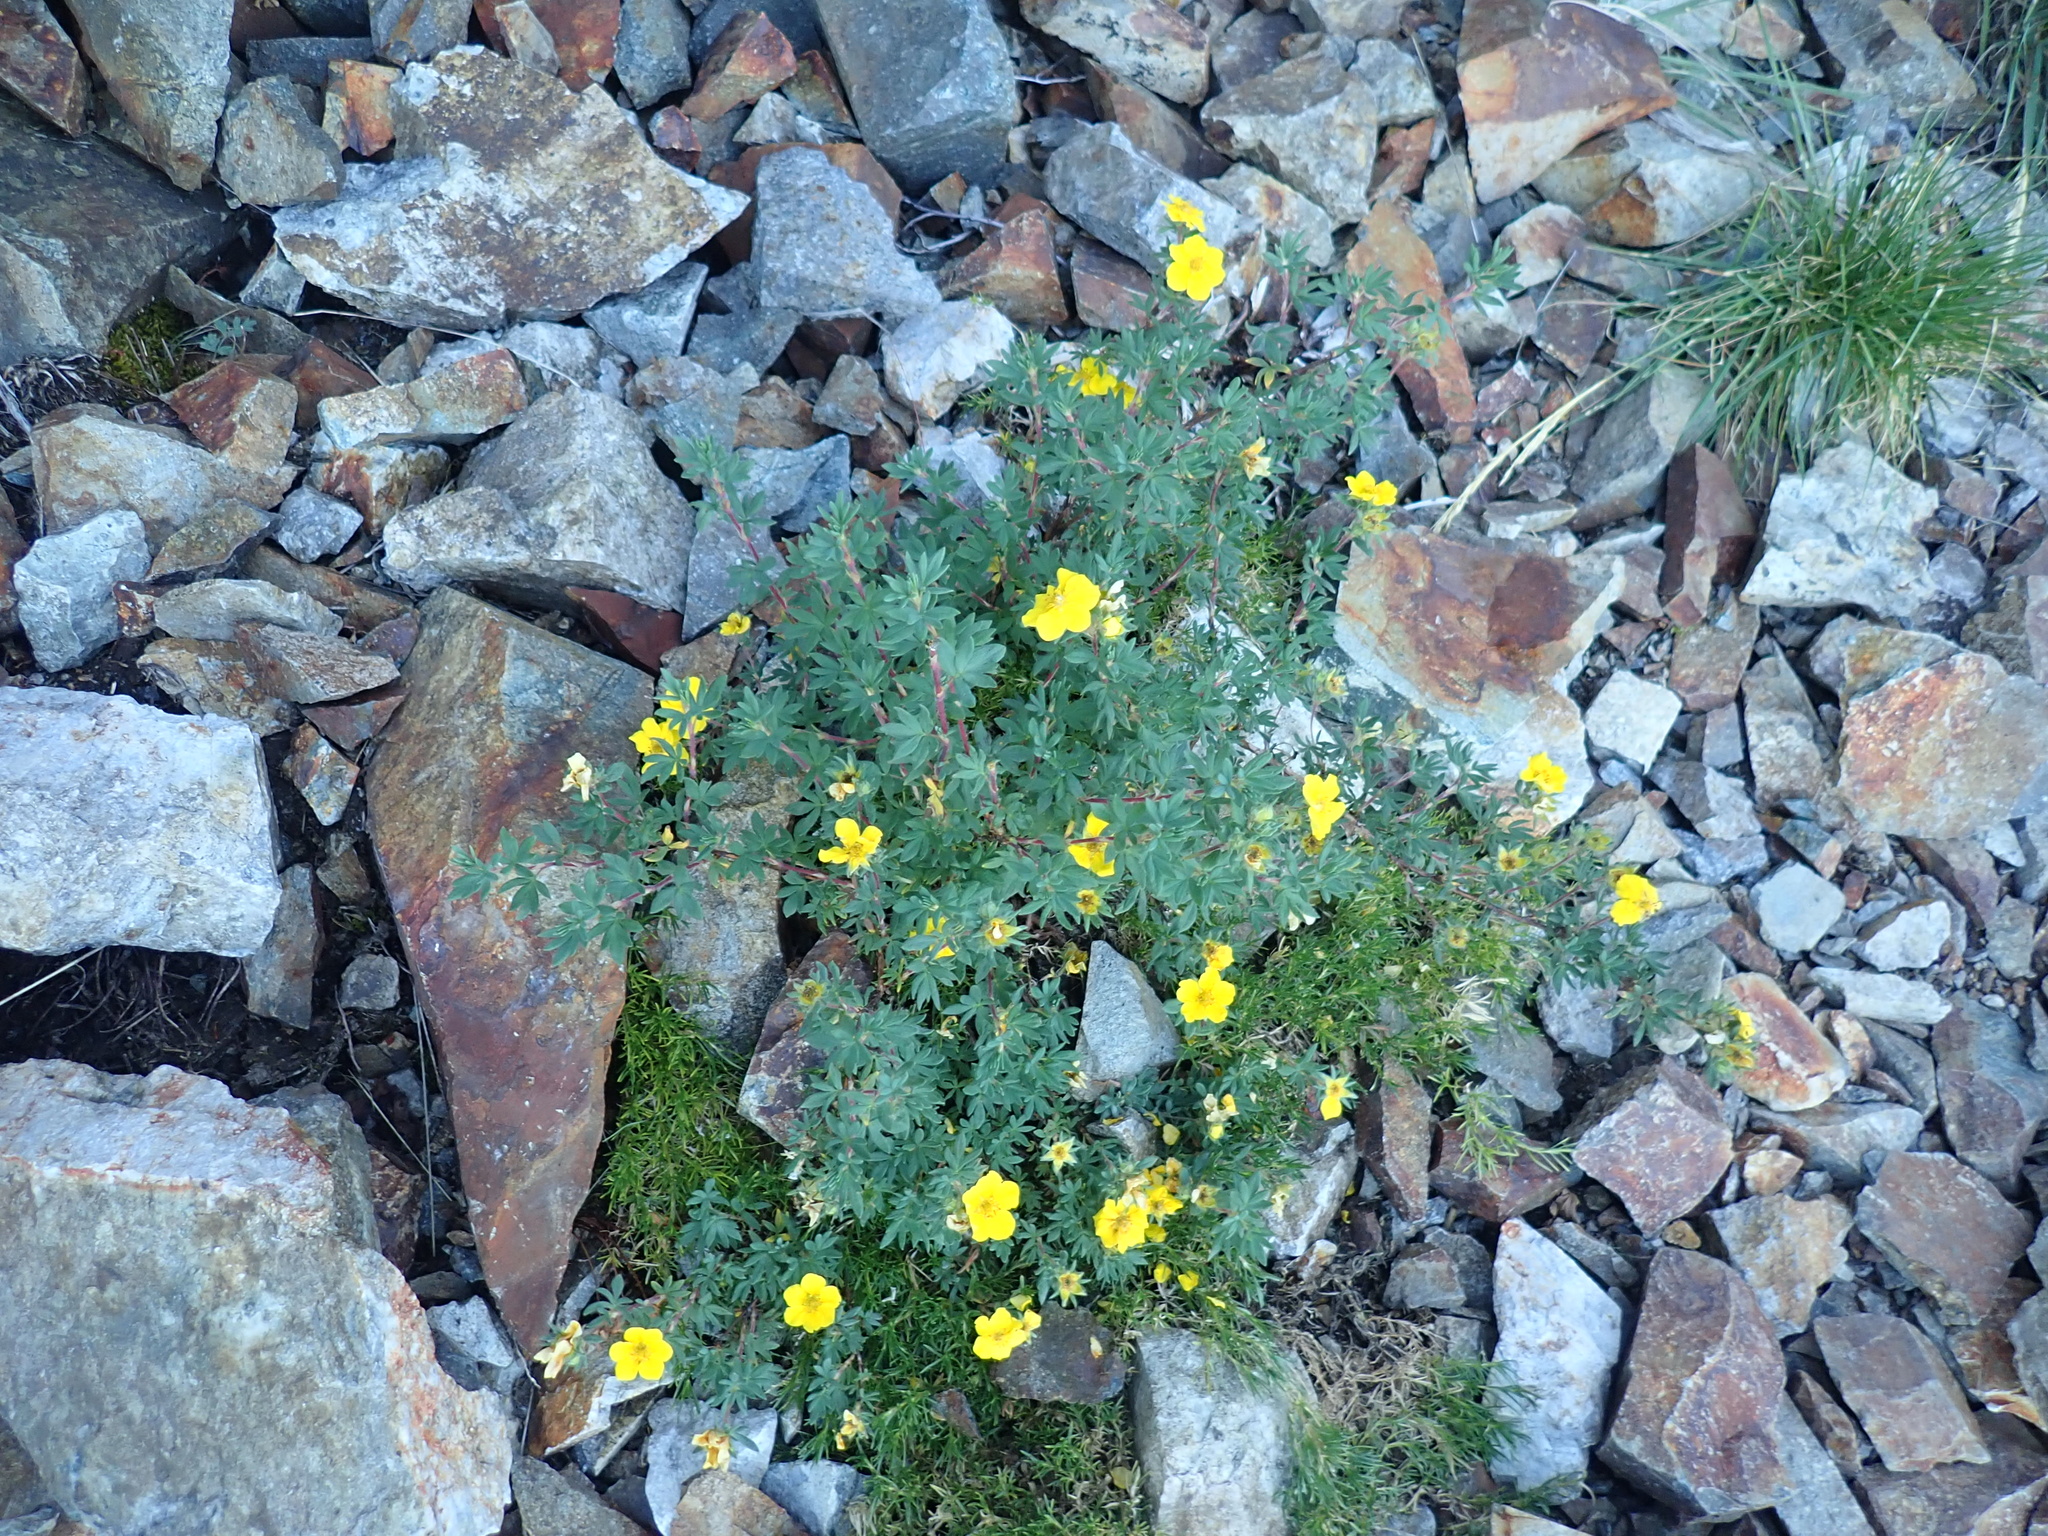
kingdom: Plantae
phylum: Tracheophyta
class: Magnoliopsida
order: Rosales
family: Rosaceae
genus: Dasiphora
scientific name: Dasiphora fruticosa
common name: Shrubby cinquefoil
